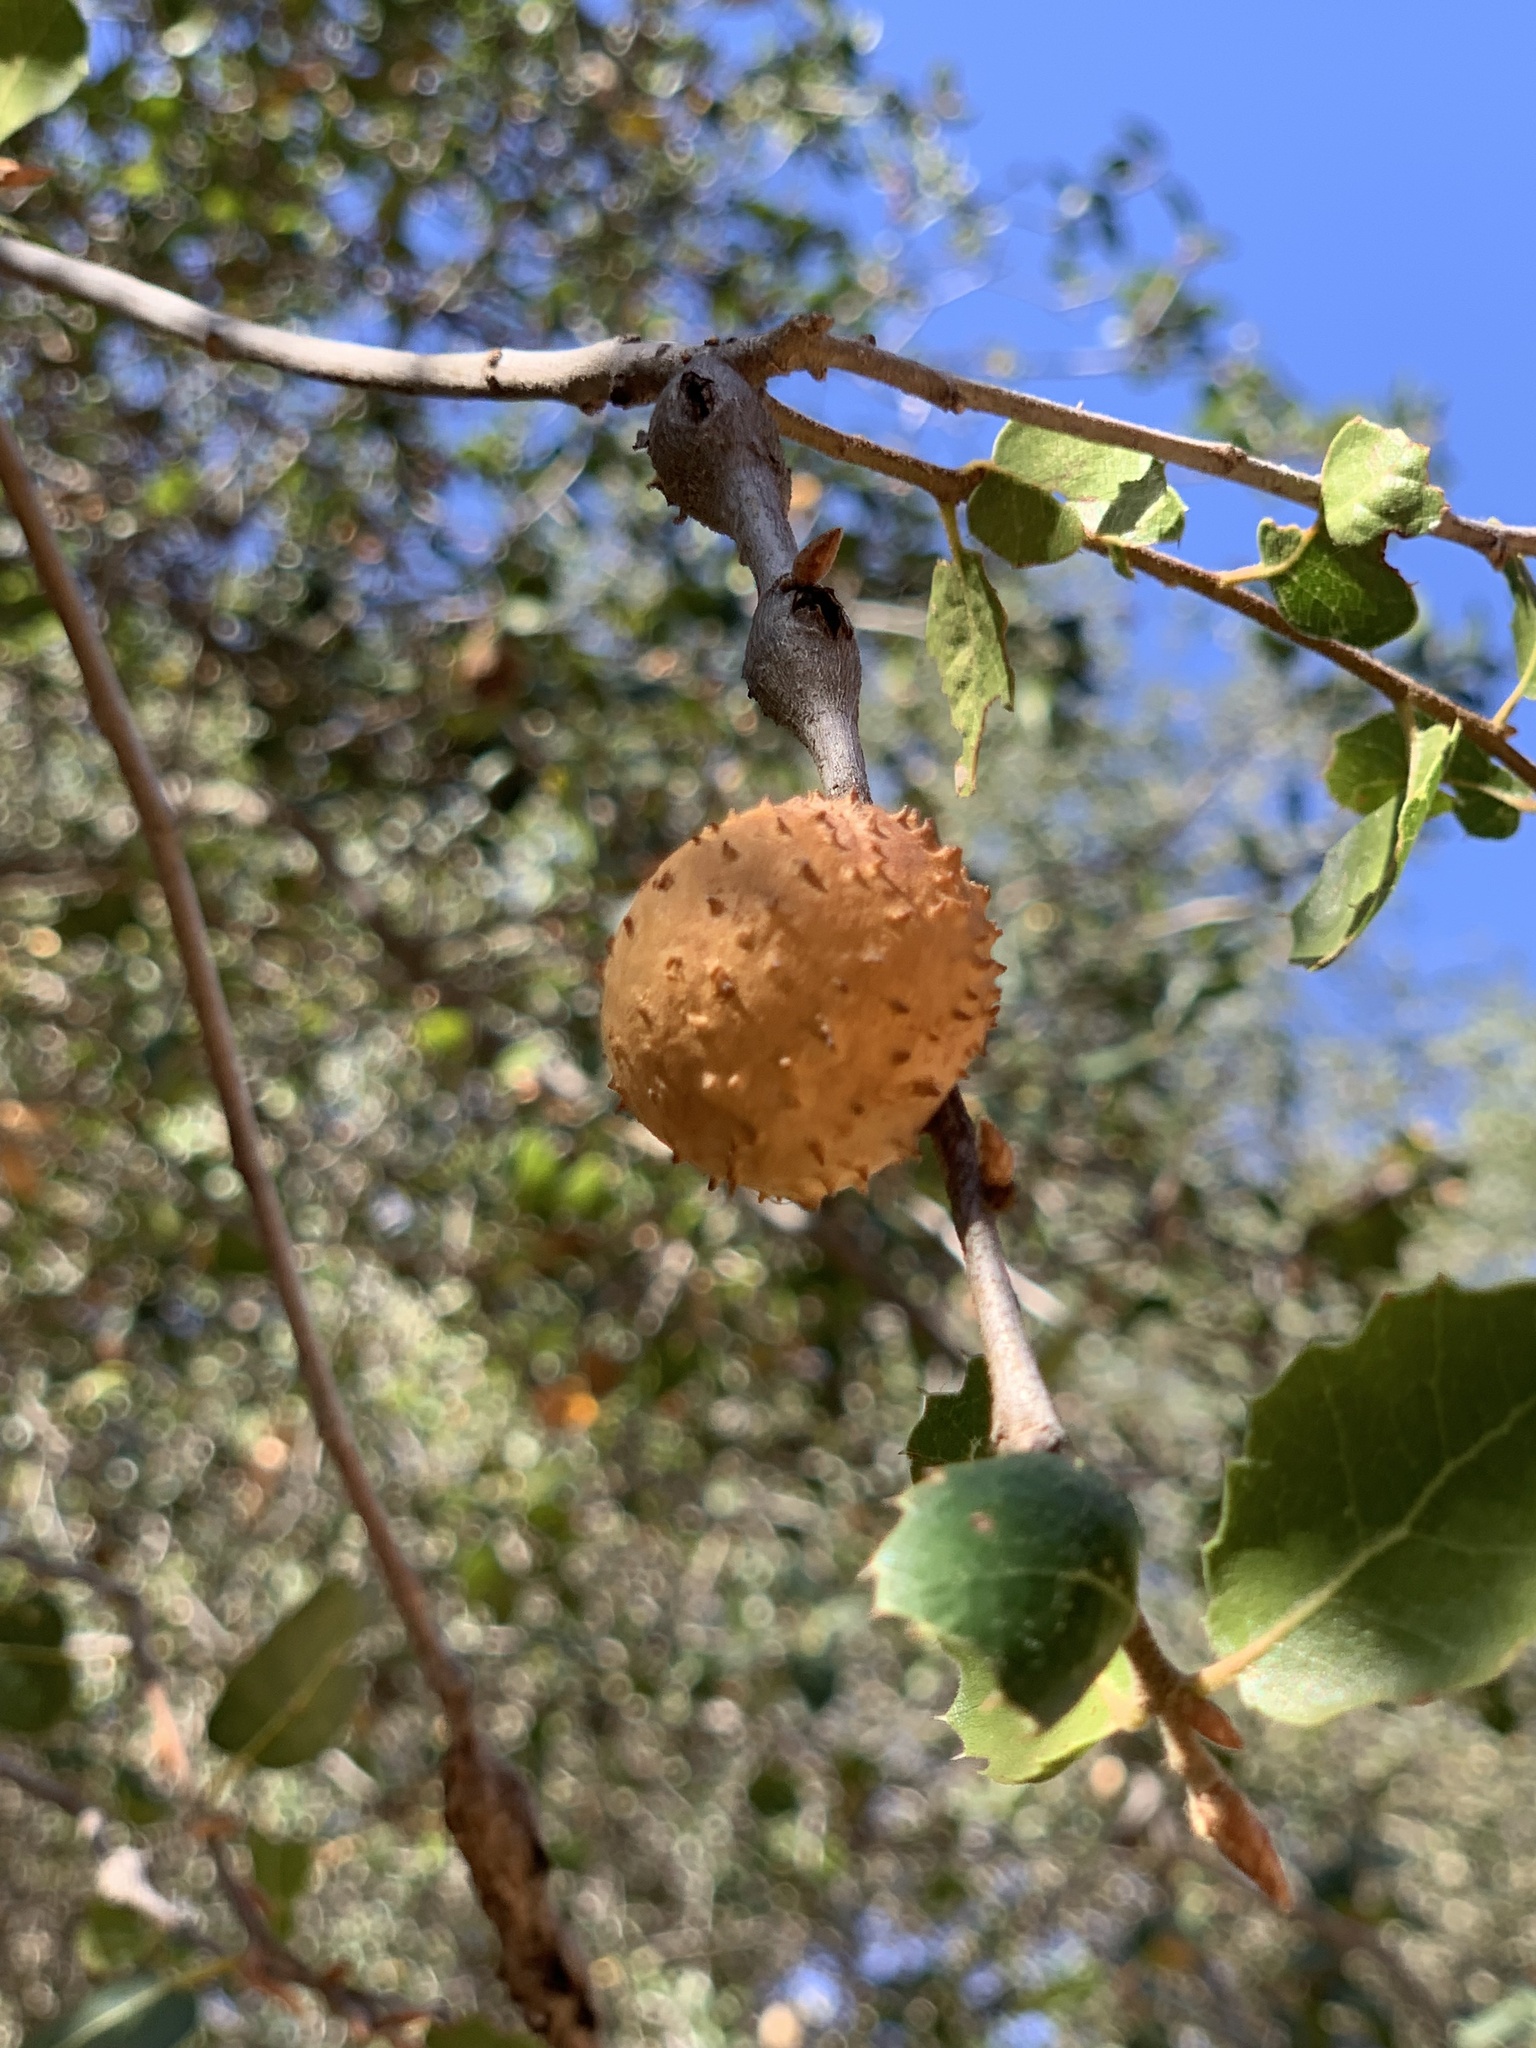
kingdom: Animalia
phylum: Arthropoda
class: Insecta
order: Hymenoptera
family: Cynipidae
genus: Amphibolips
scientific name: Amphibolips quercuspomiformis
